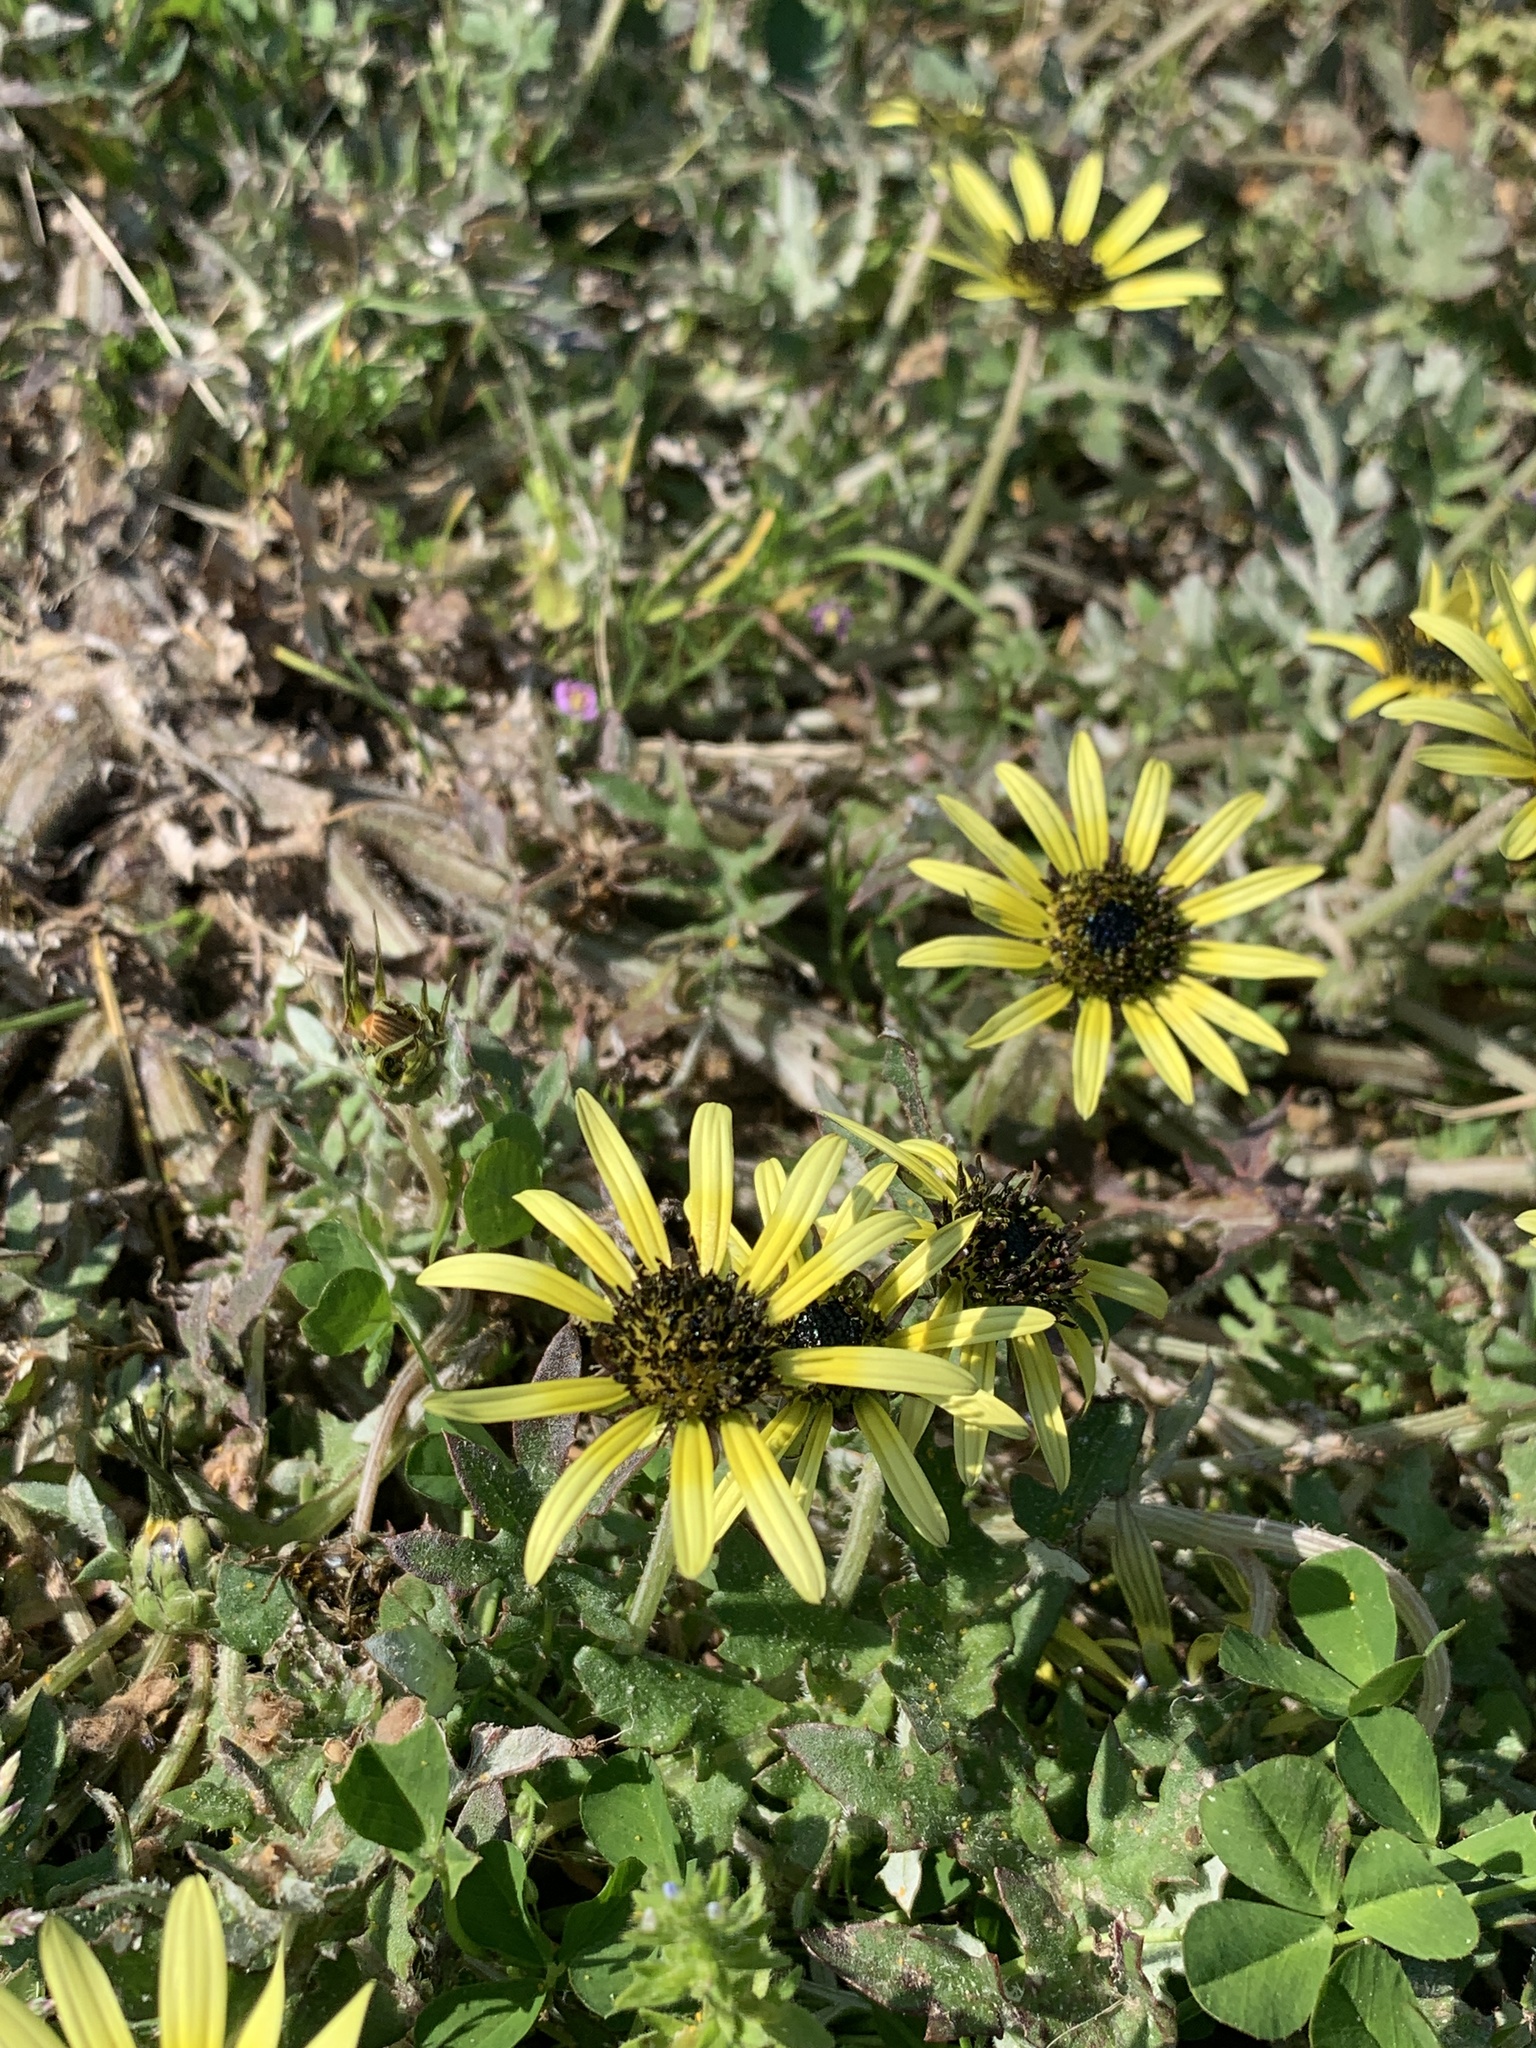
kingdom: Plantae
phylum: Tracheophyta
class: Magnoliopsida
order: Asterales
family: Asteraceae
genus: Arctotheca
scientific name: Arctotheca calendula
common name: Capeweed
